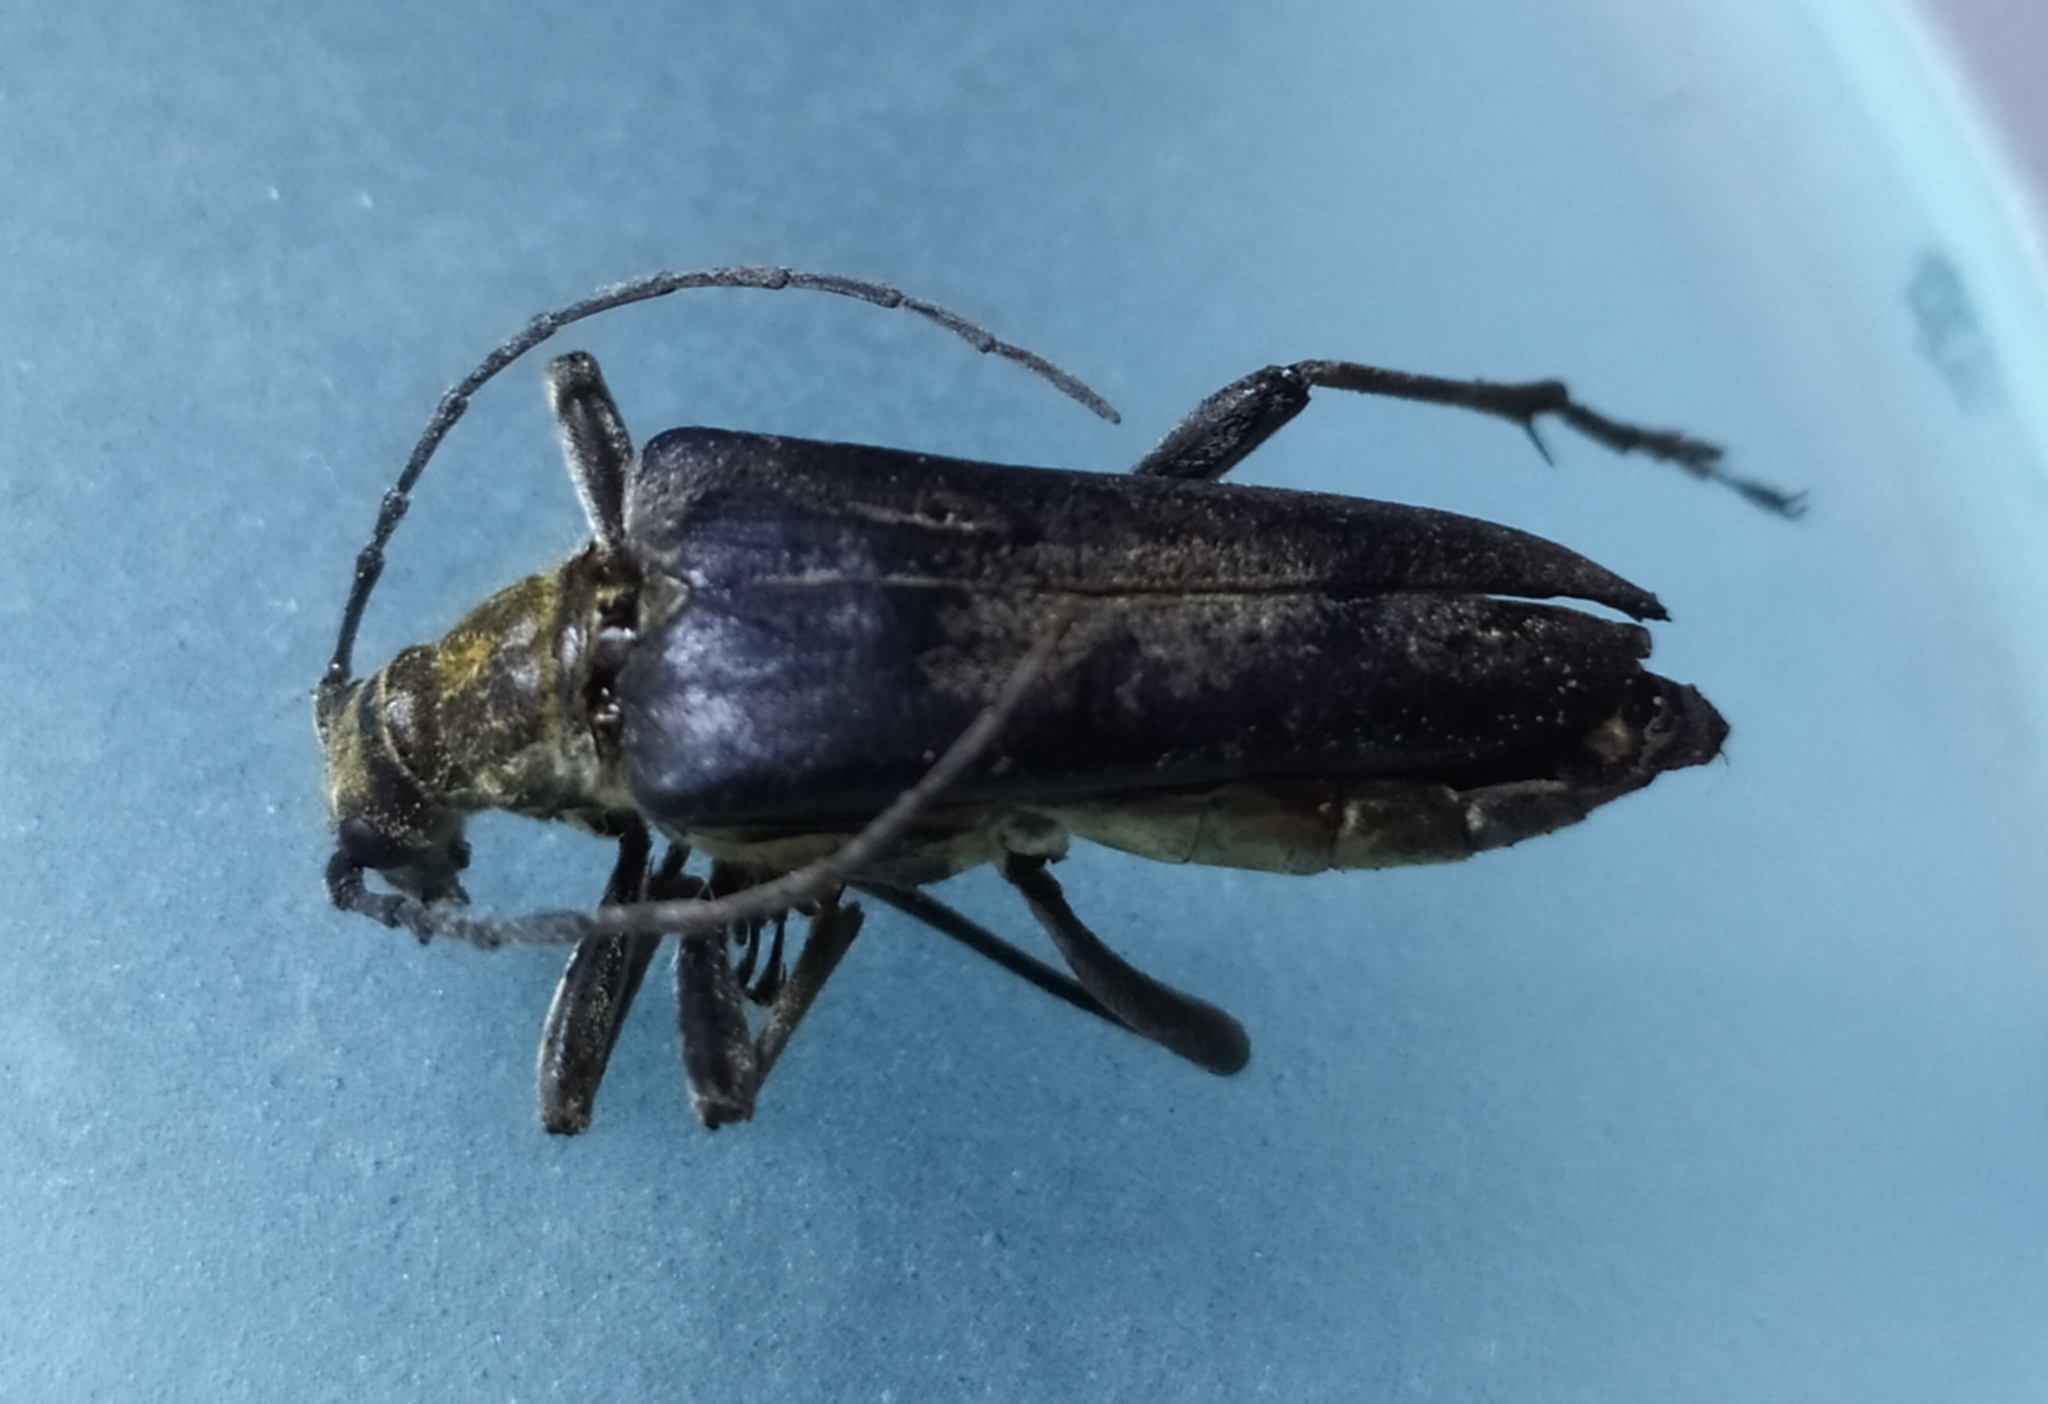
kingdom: Animalia
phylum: Arthropoda
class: Insecta
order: Coleoptera
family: Cerambycidae
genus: Stenocorus
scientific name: Stenocorus meridianus
